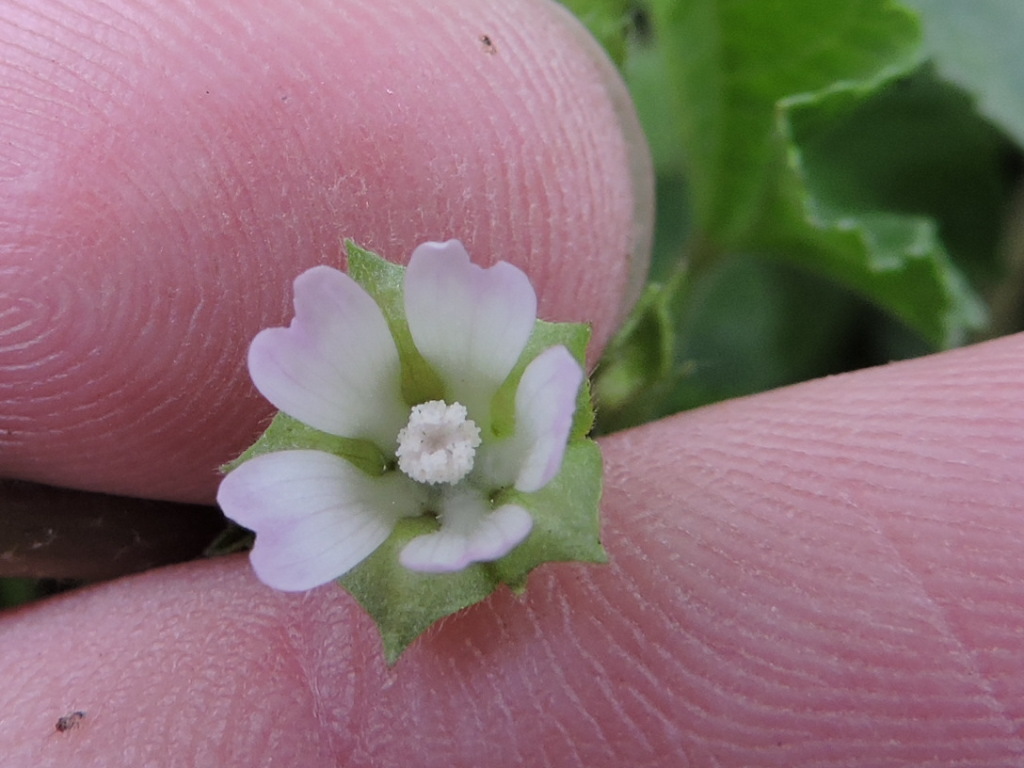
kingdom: Plantae
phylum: Tracheophyta
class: Magnoliopsida
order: Malvales
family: Malvaceae
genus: Malva
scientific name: Malva neglecta
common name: Common mallow
